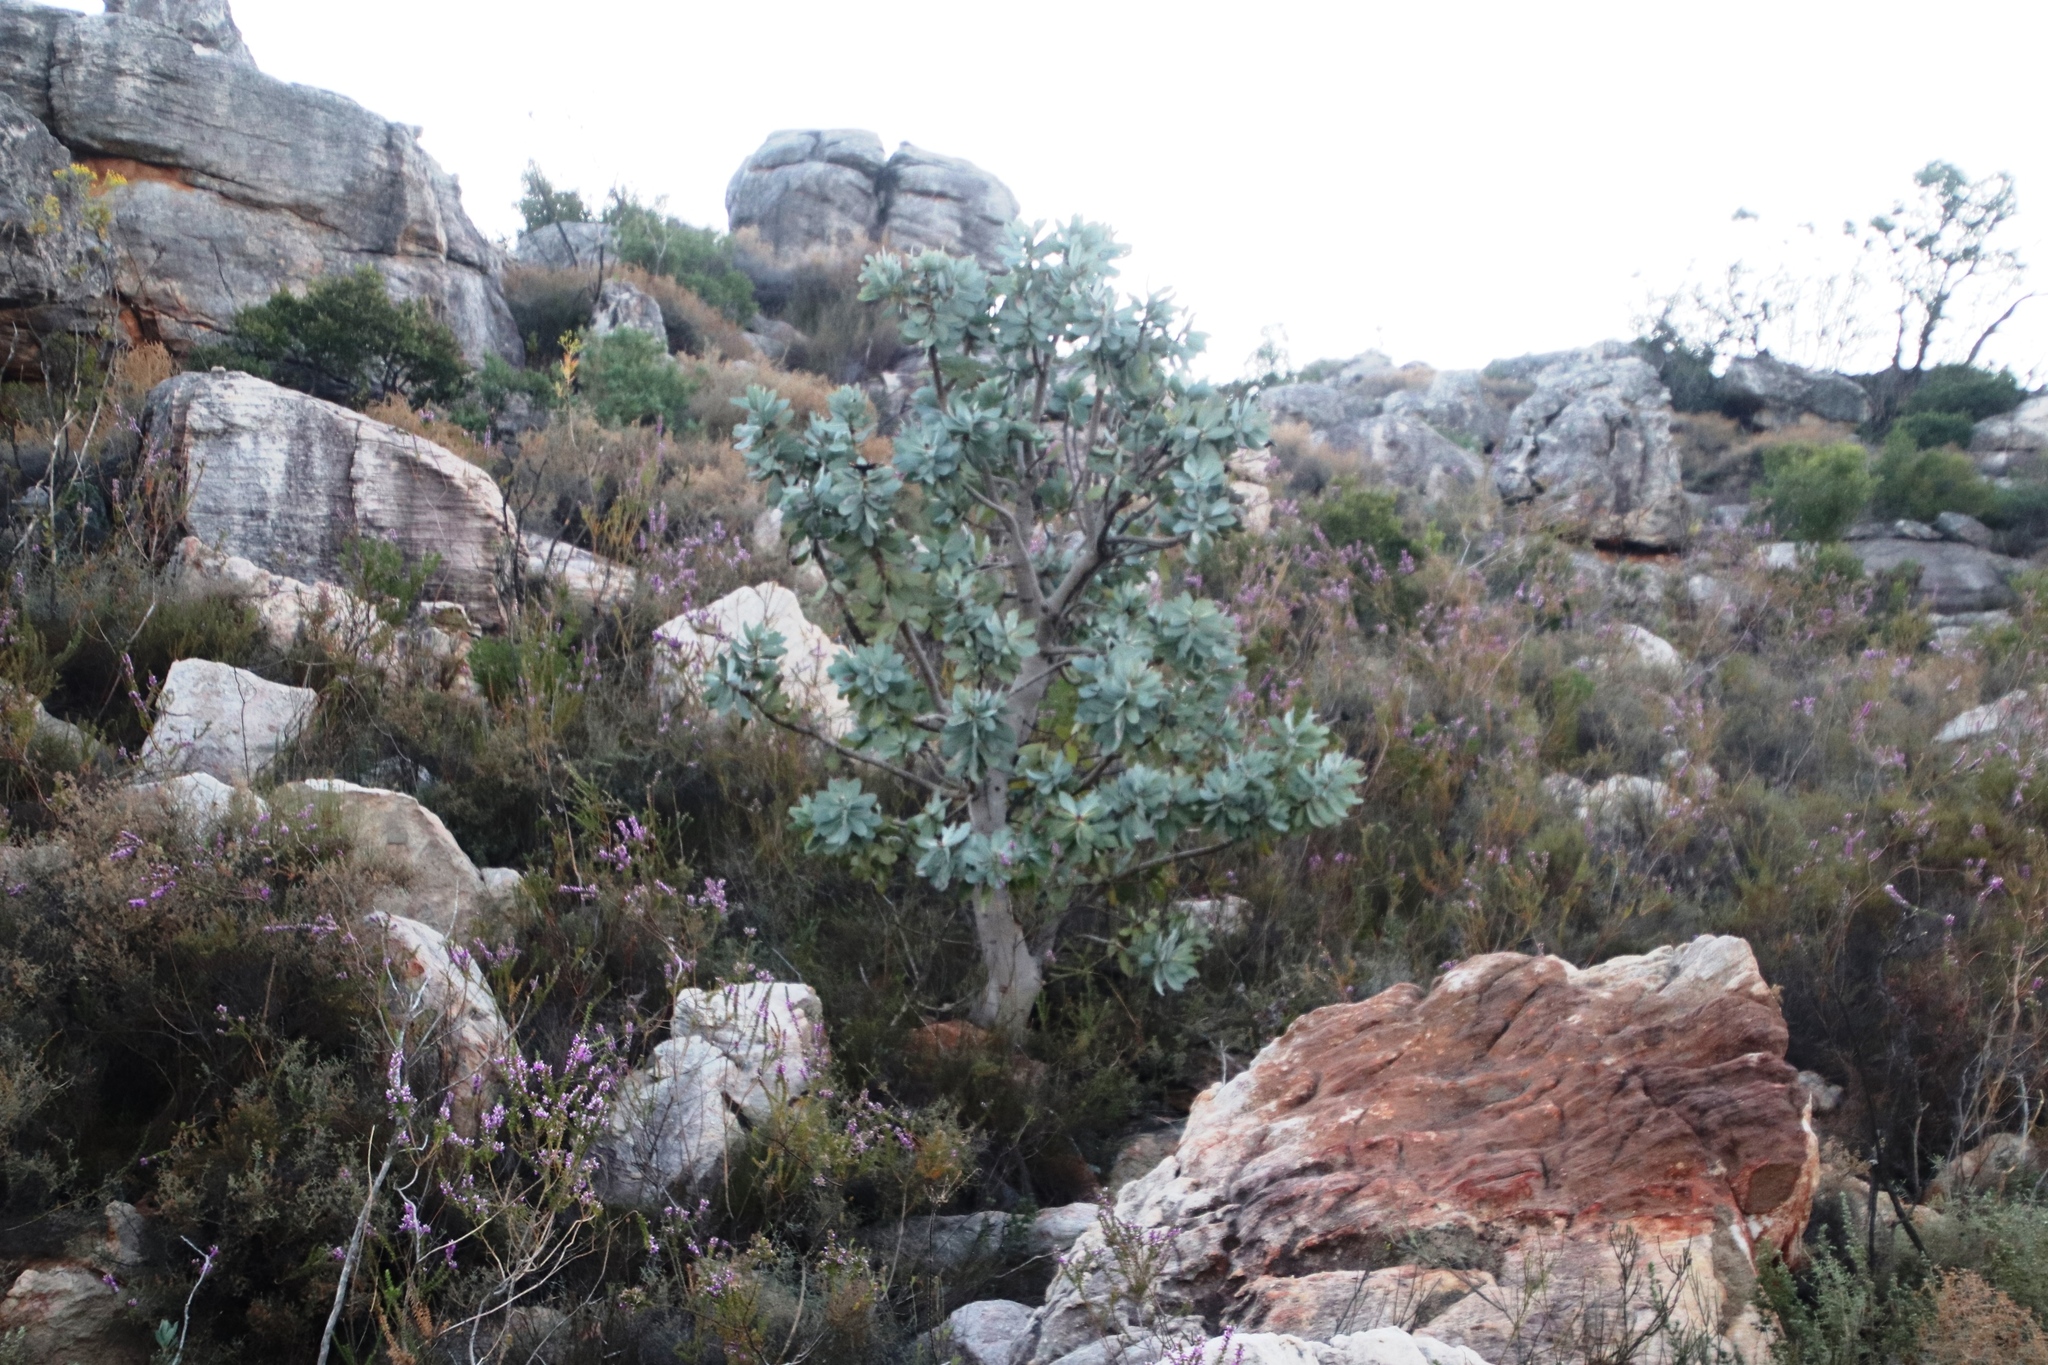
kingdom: Plantae
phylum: Tracheophyta
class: Magnoliopsida
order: Proteales
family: Proteaceae
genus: Protea
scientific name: Protea nitida
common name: Tree protea
